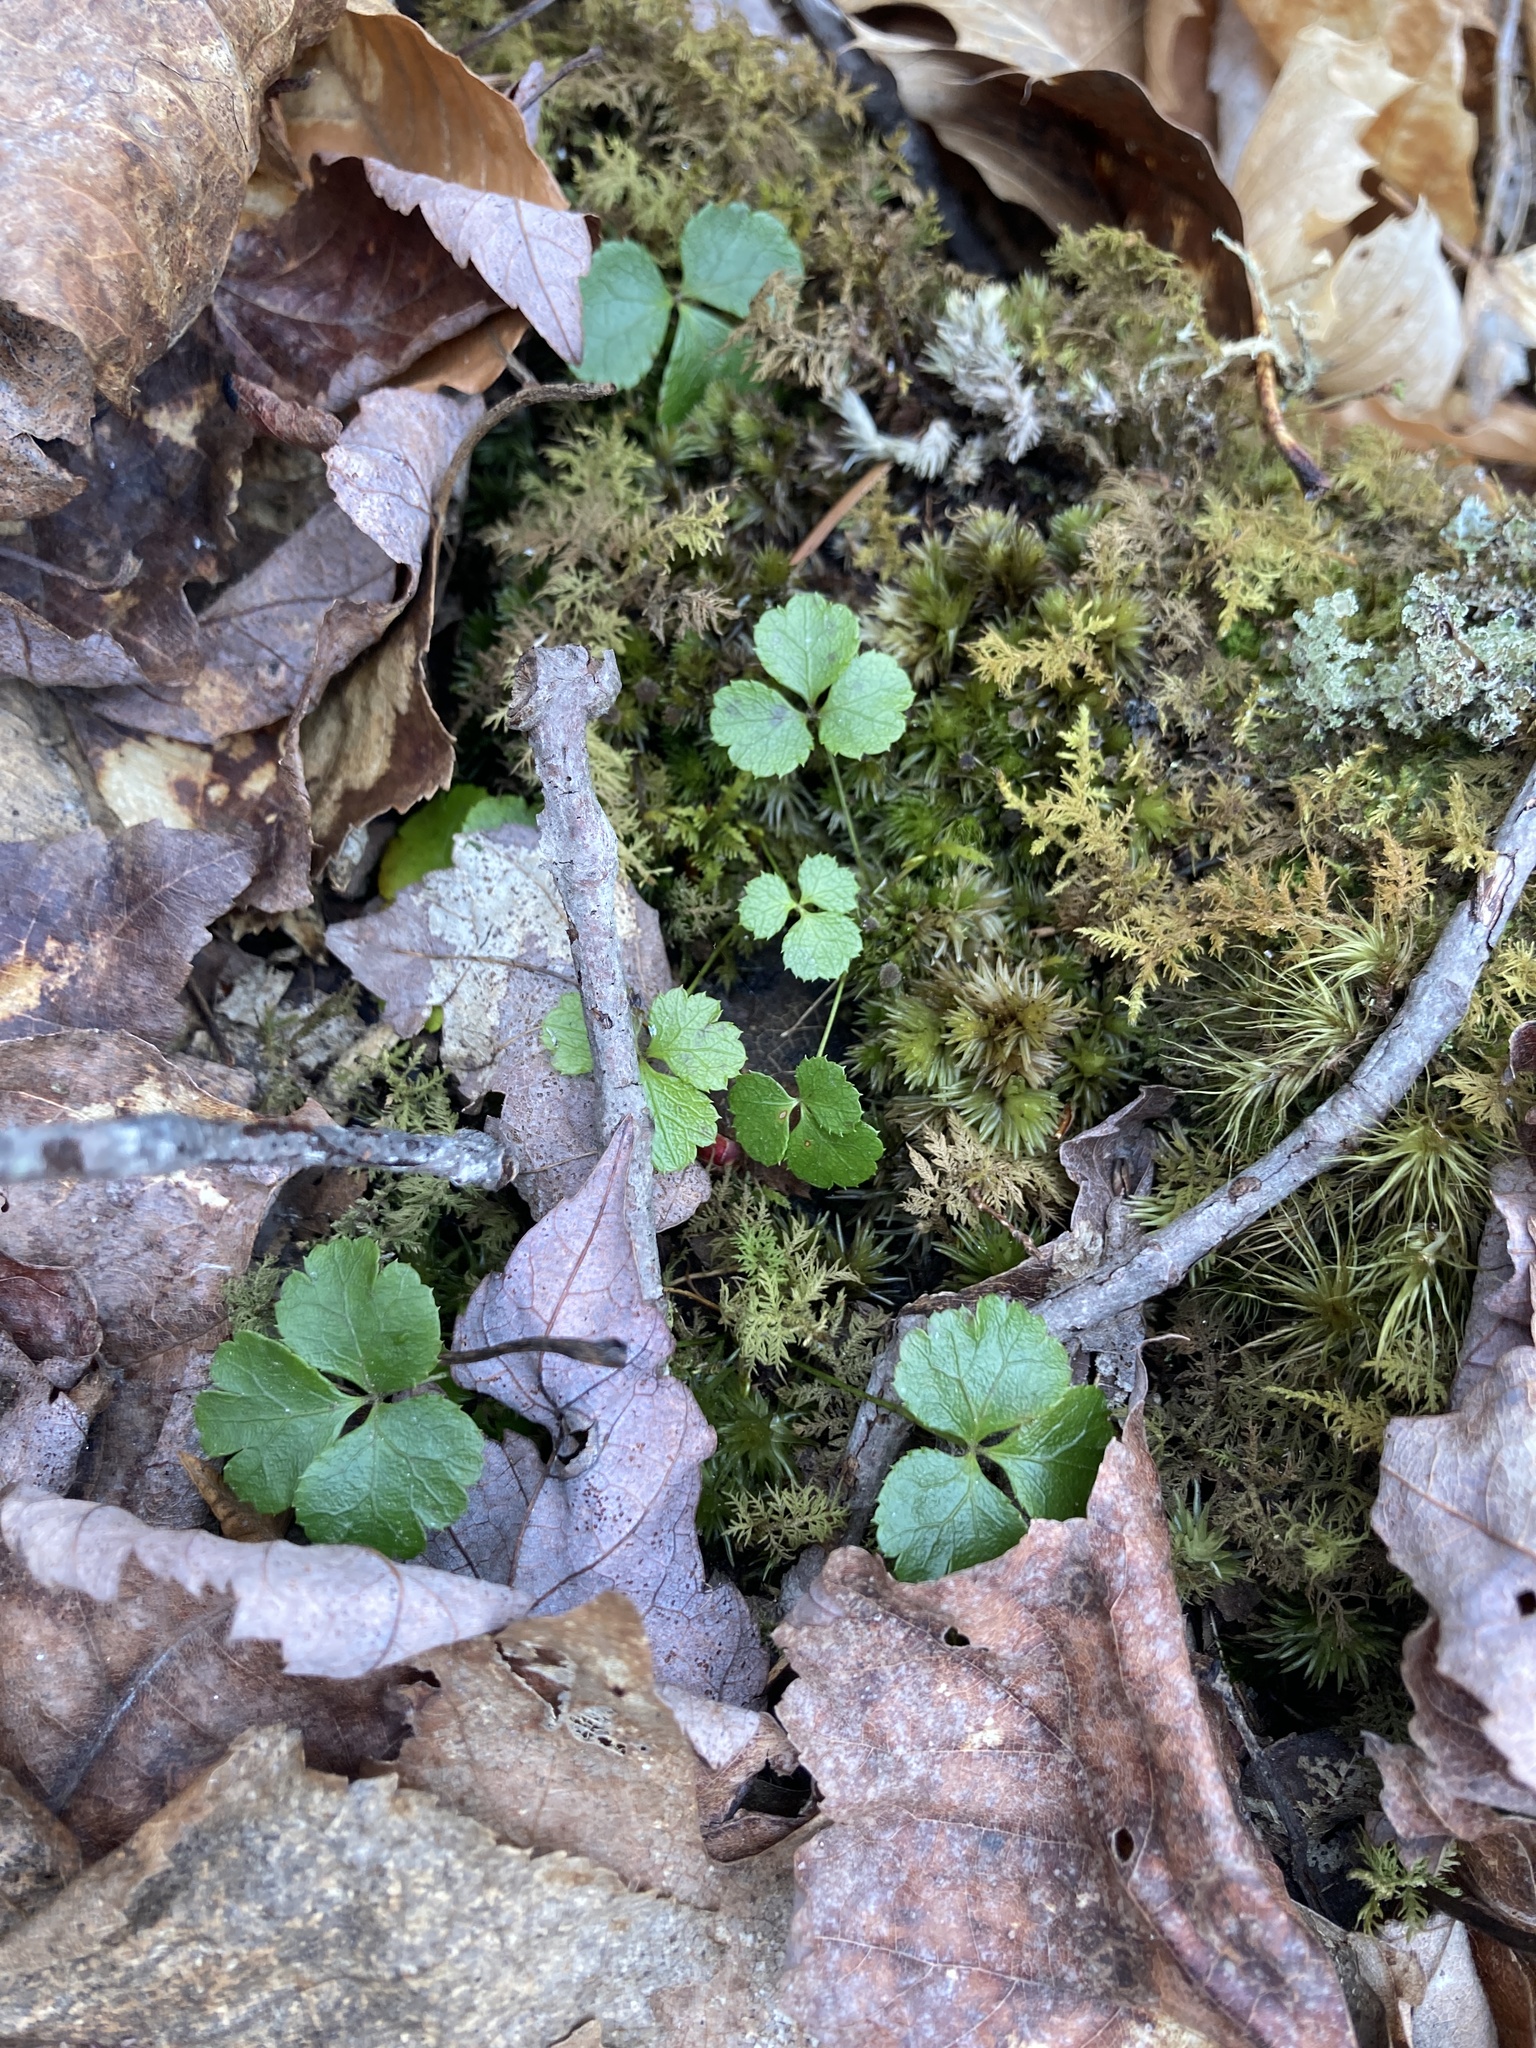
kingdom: Plantae
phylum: Tracheophyta
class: Magnoliopsida
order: Ranunculales
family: Ranunculaceae
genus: Coptis
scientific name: Coptis trifolia
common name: Canker-root
